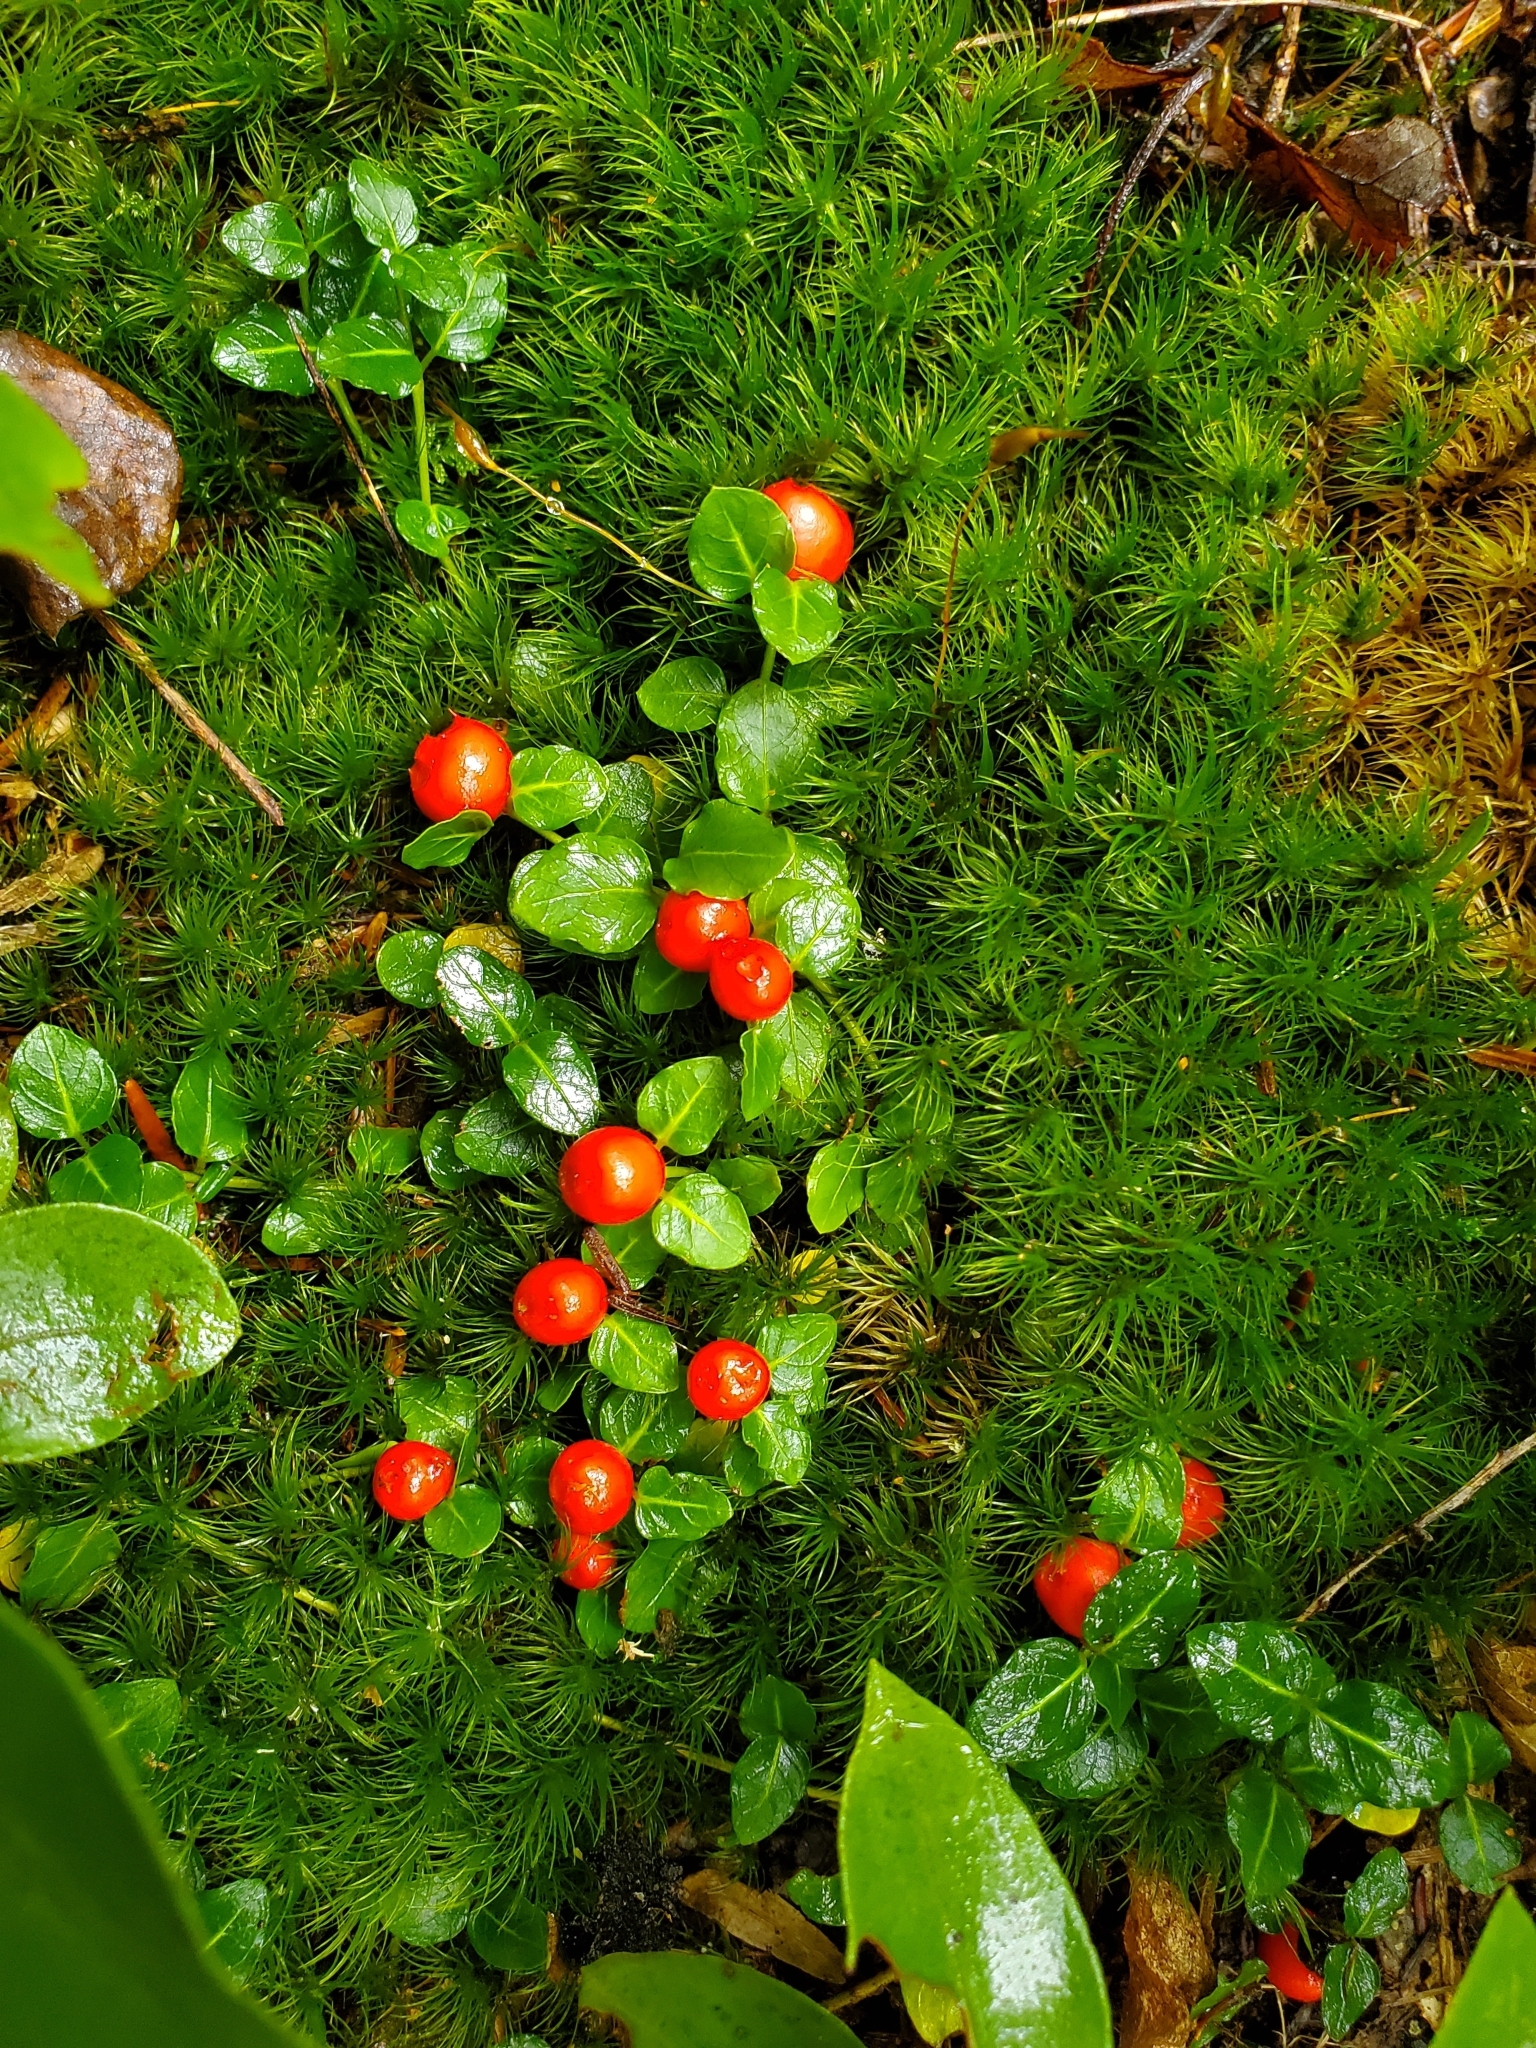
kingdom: Plantae
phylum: Tracheophyta
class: Magnoliopsida
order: Gentianales
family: Rubiaceae
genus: Mitchella
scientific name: Mitchella repens
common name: Partridge-berry
